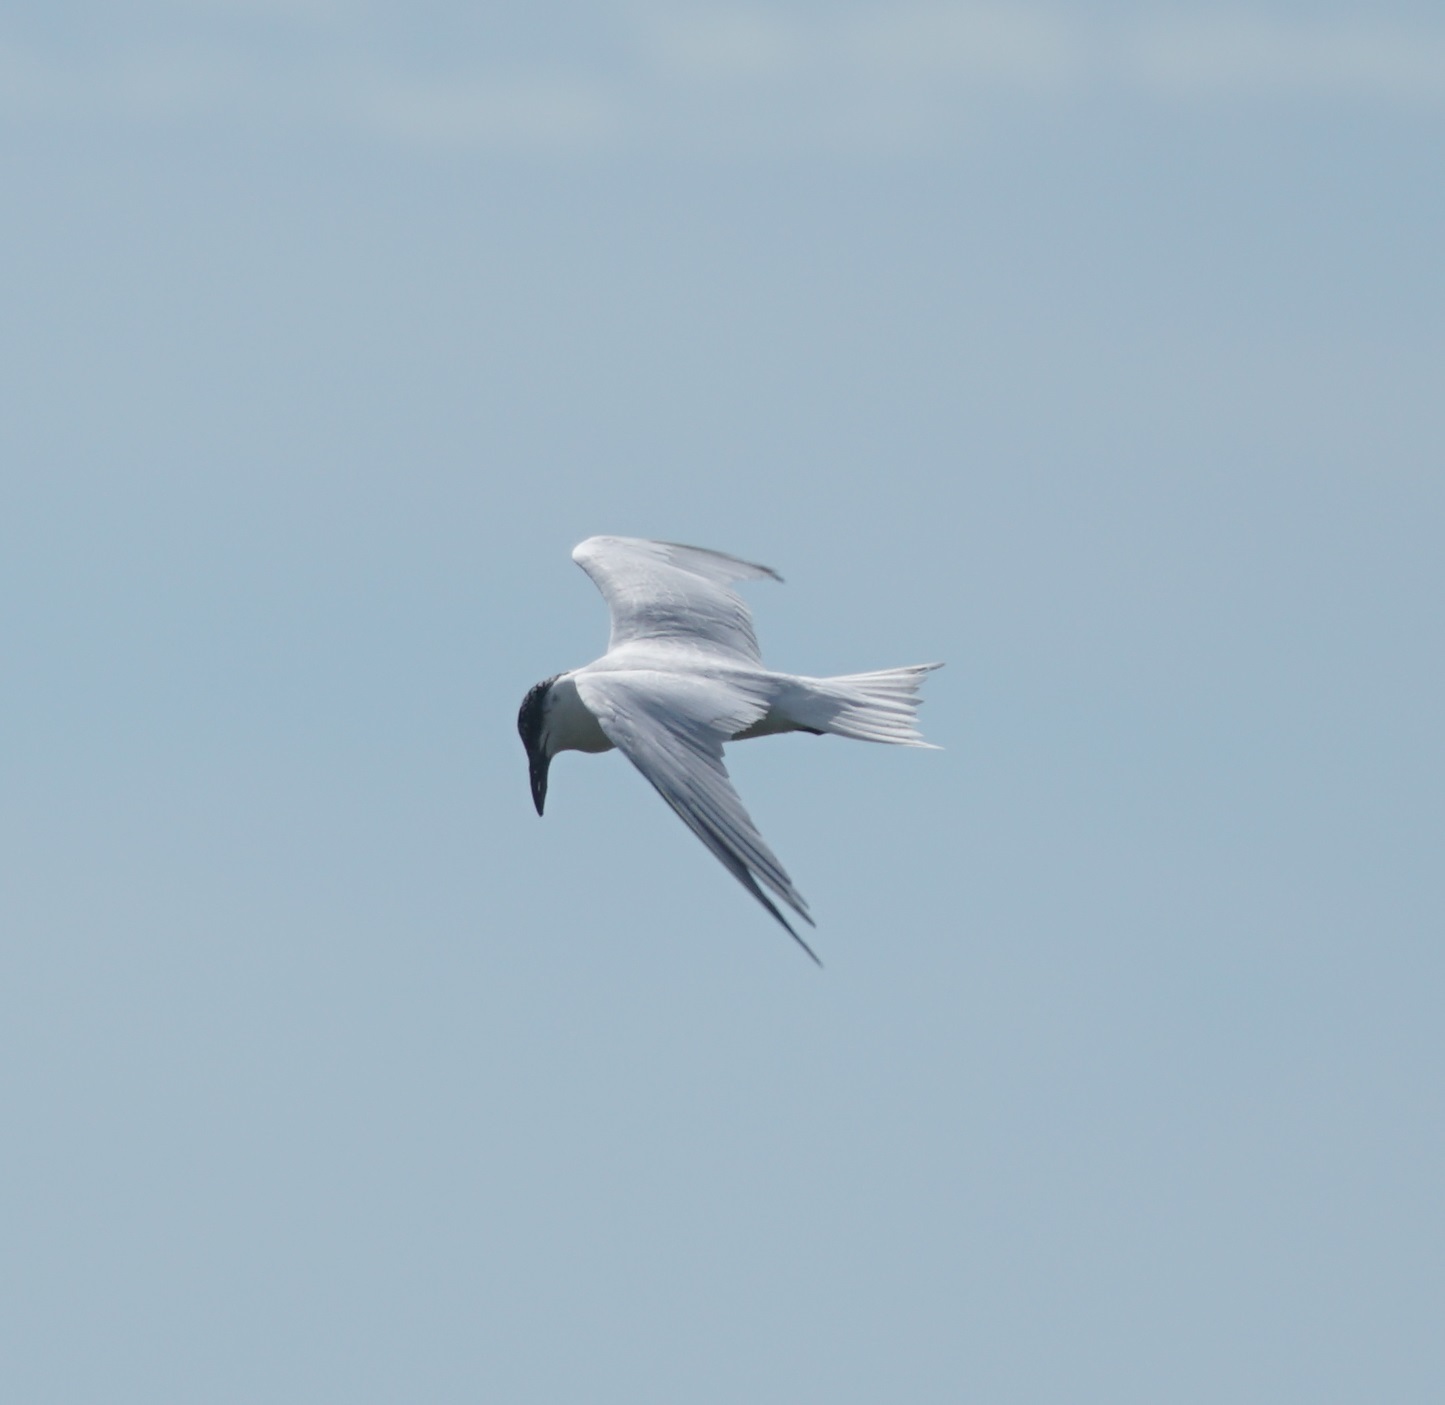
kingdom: Animalia
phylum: Chordata
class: Aves
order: Charadriiformes
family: Laridae
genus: Gelochelidon
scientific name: Gelochelidon macrotarsa
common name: Australian tern
